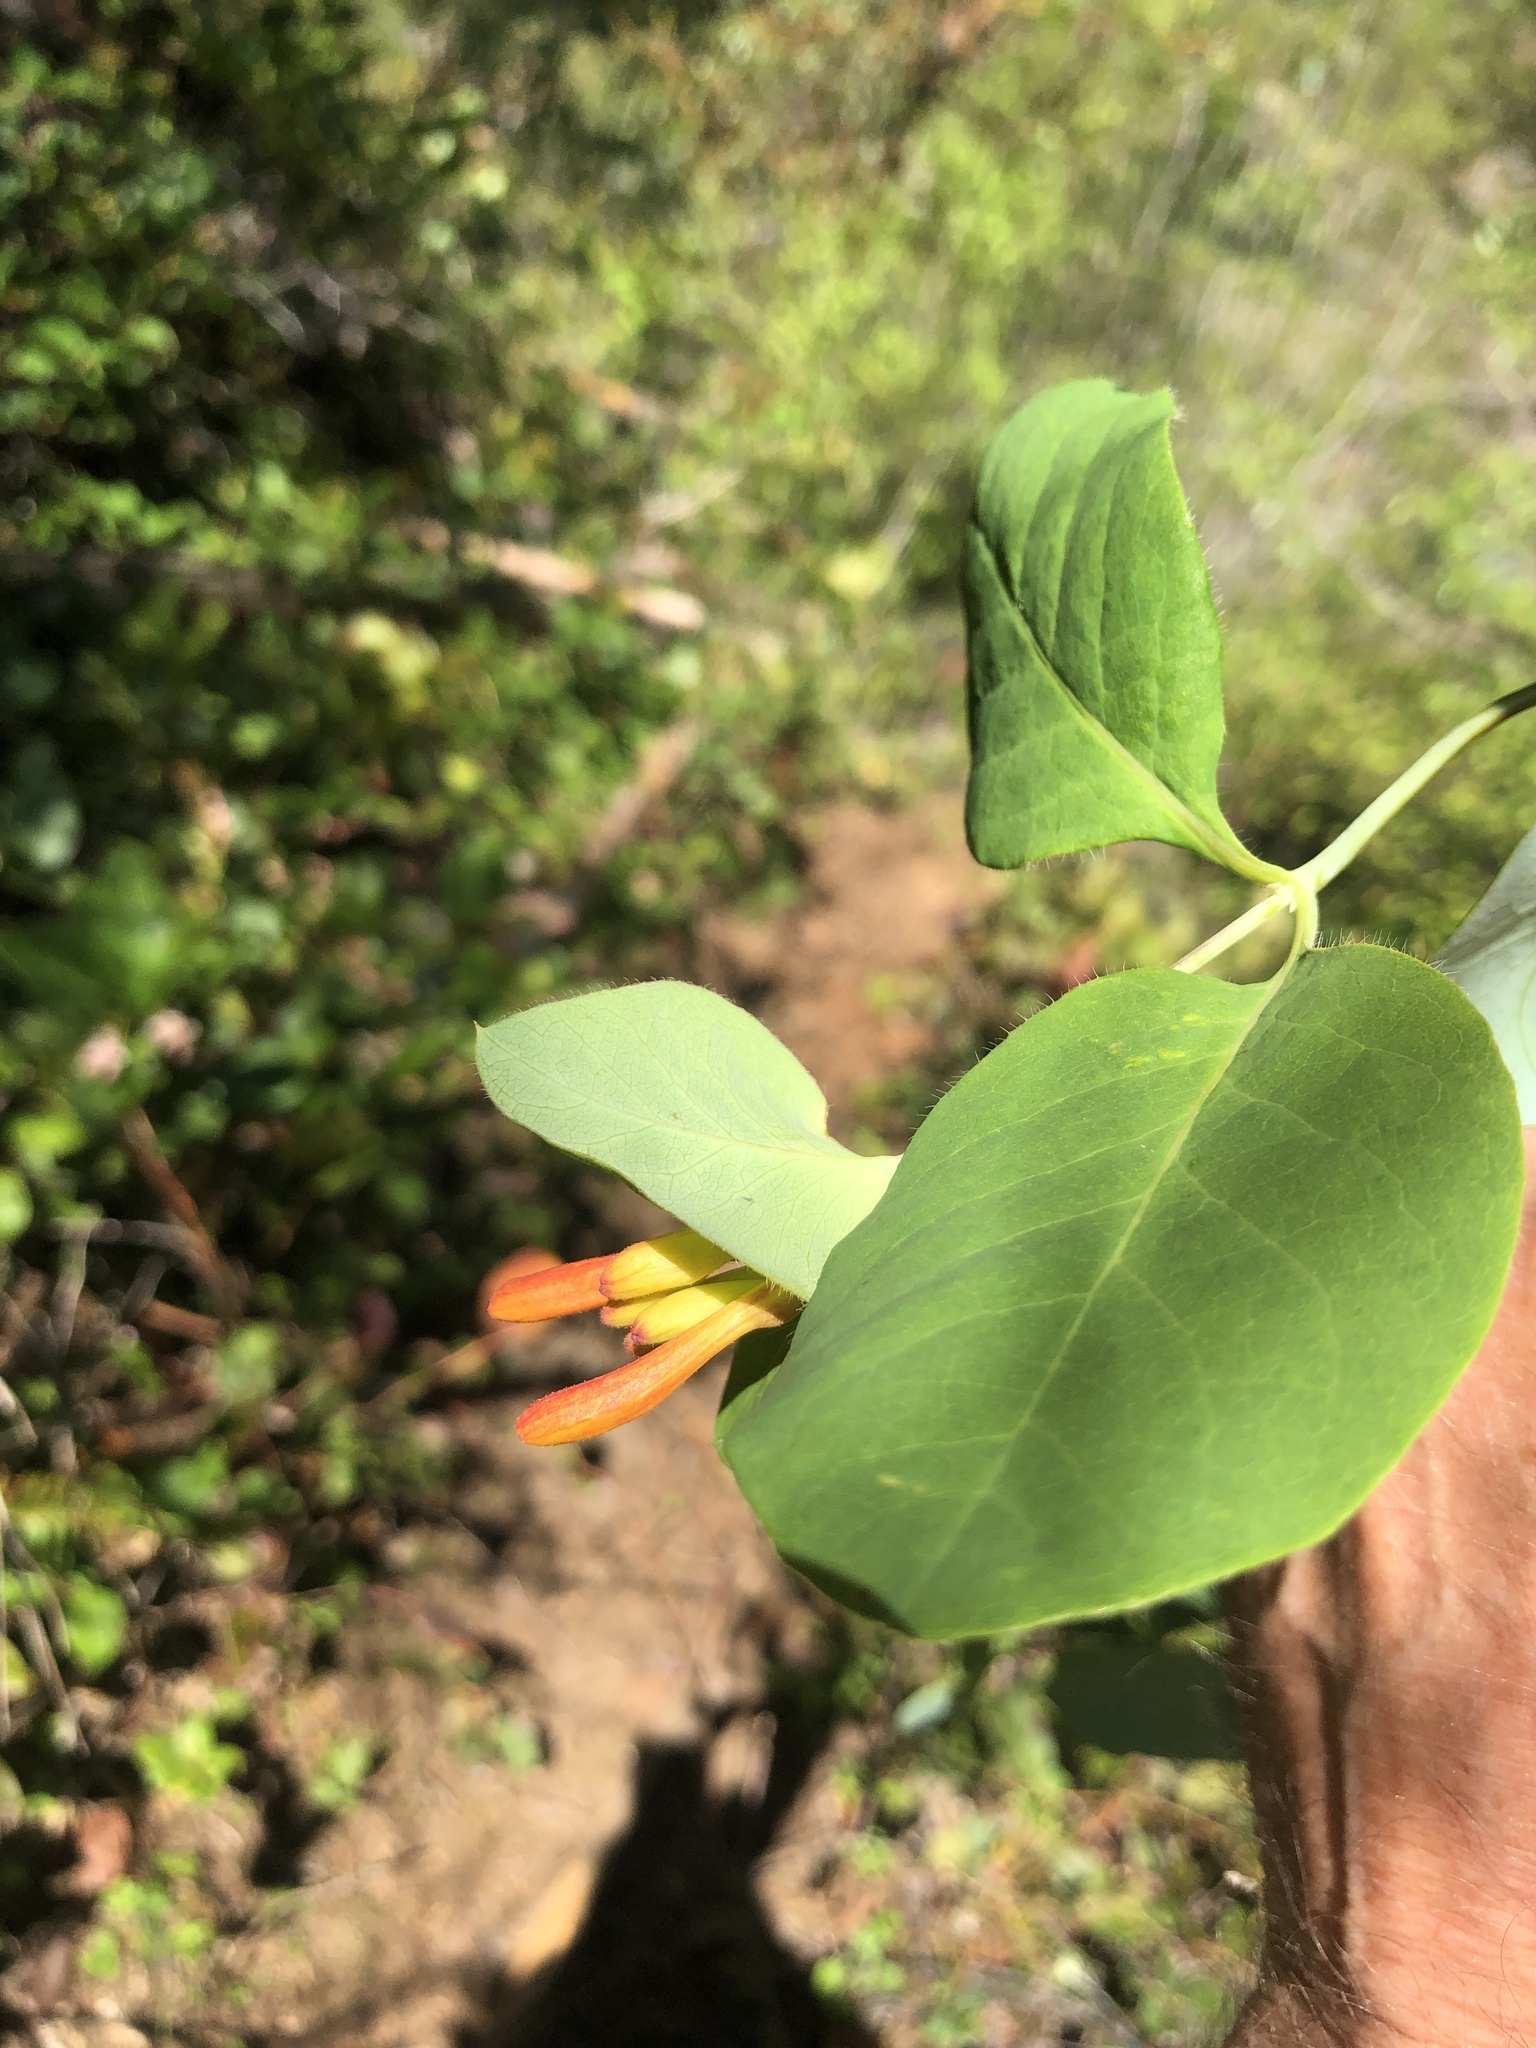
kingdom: Plantae
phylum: Tracheophyta
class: Magnoliopsida
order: Dipsacales
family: Caprifoliaceae
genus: Lonicera
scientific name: Lonicera ciliosa
